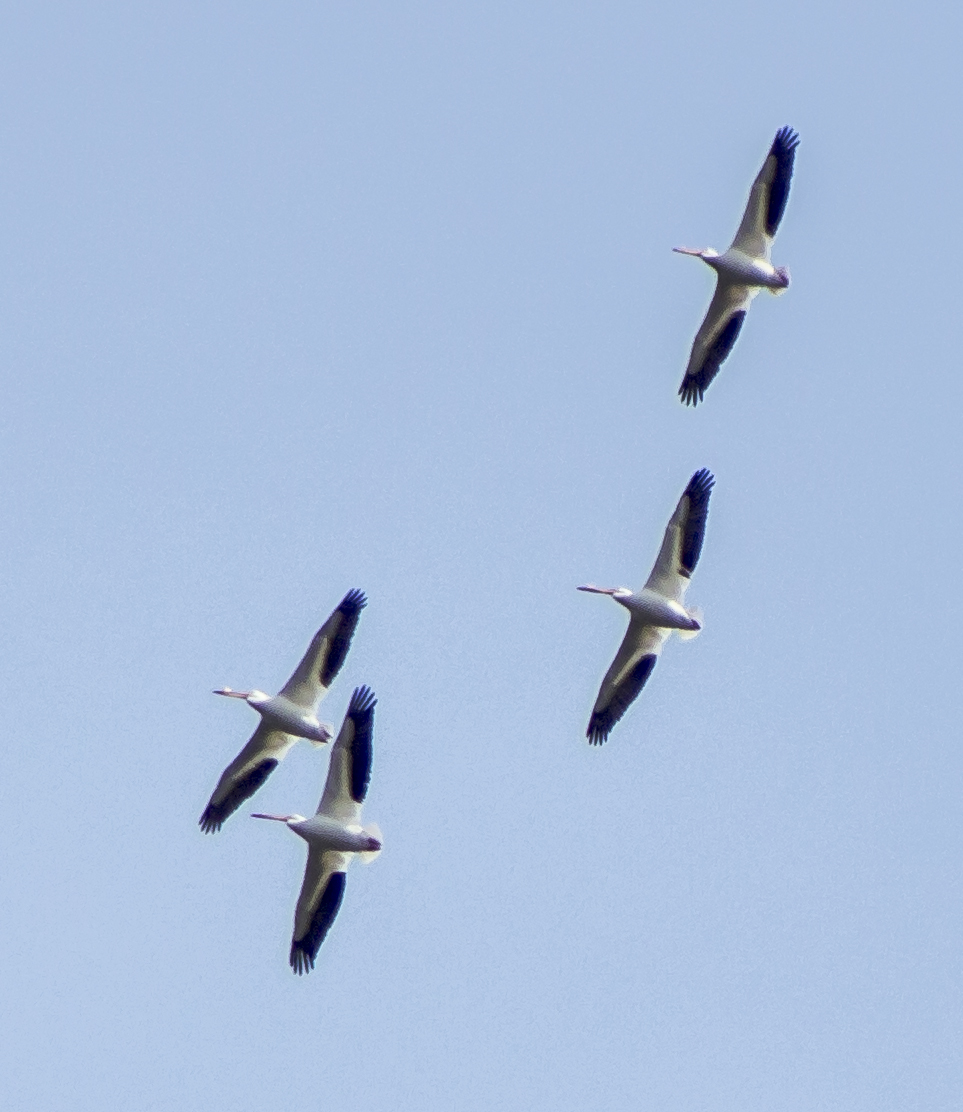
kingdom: Animalia
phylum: Chordata
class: Aves
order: Pelecaniformes
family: Pelecanidae
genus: Pelecanus
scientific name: Pelecanus erythrorhynchos
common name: American white pelican
